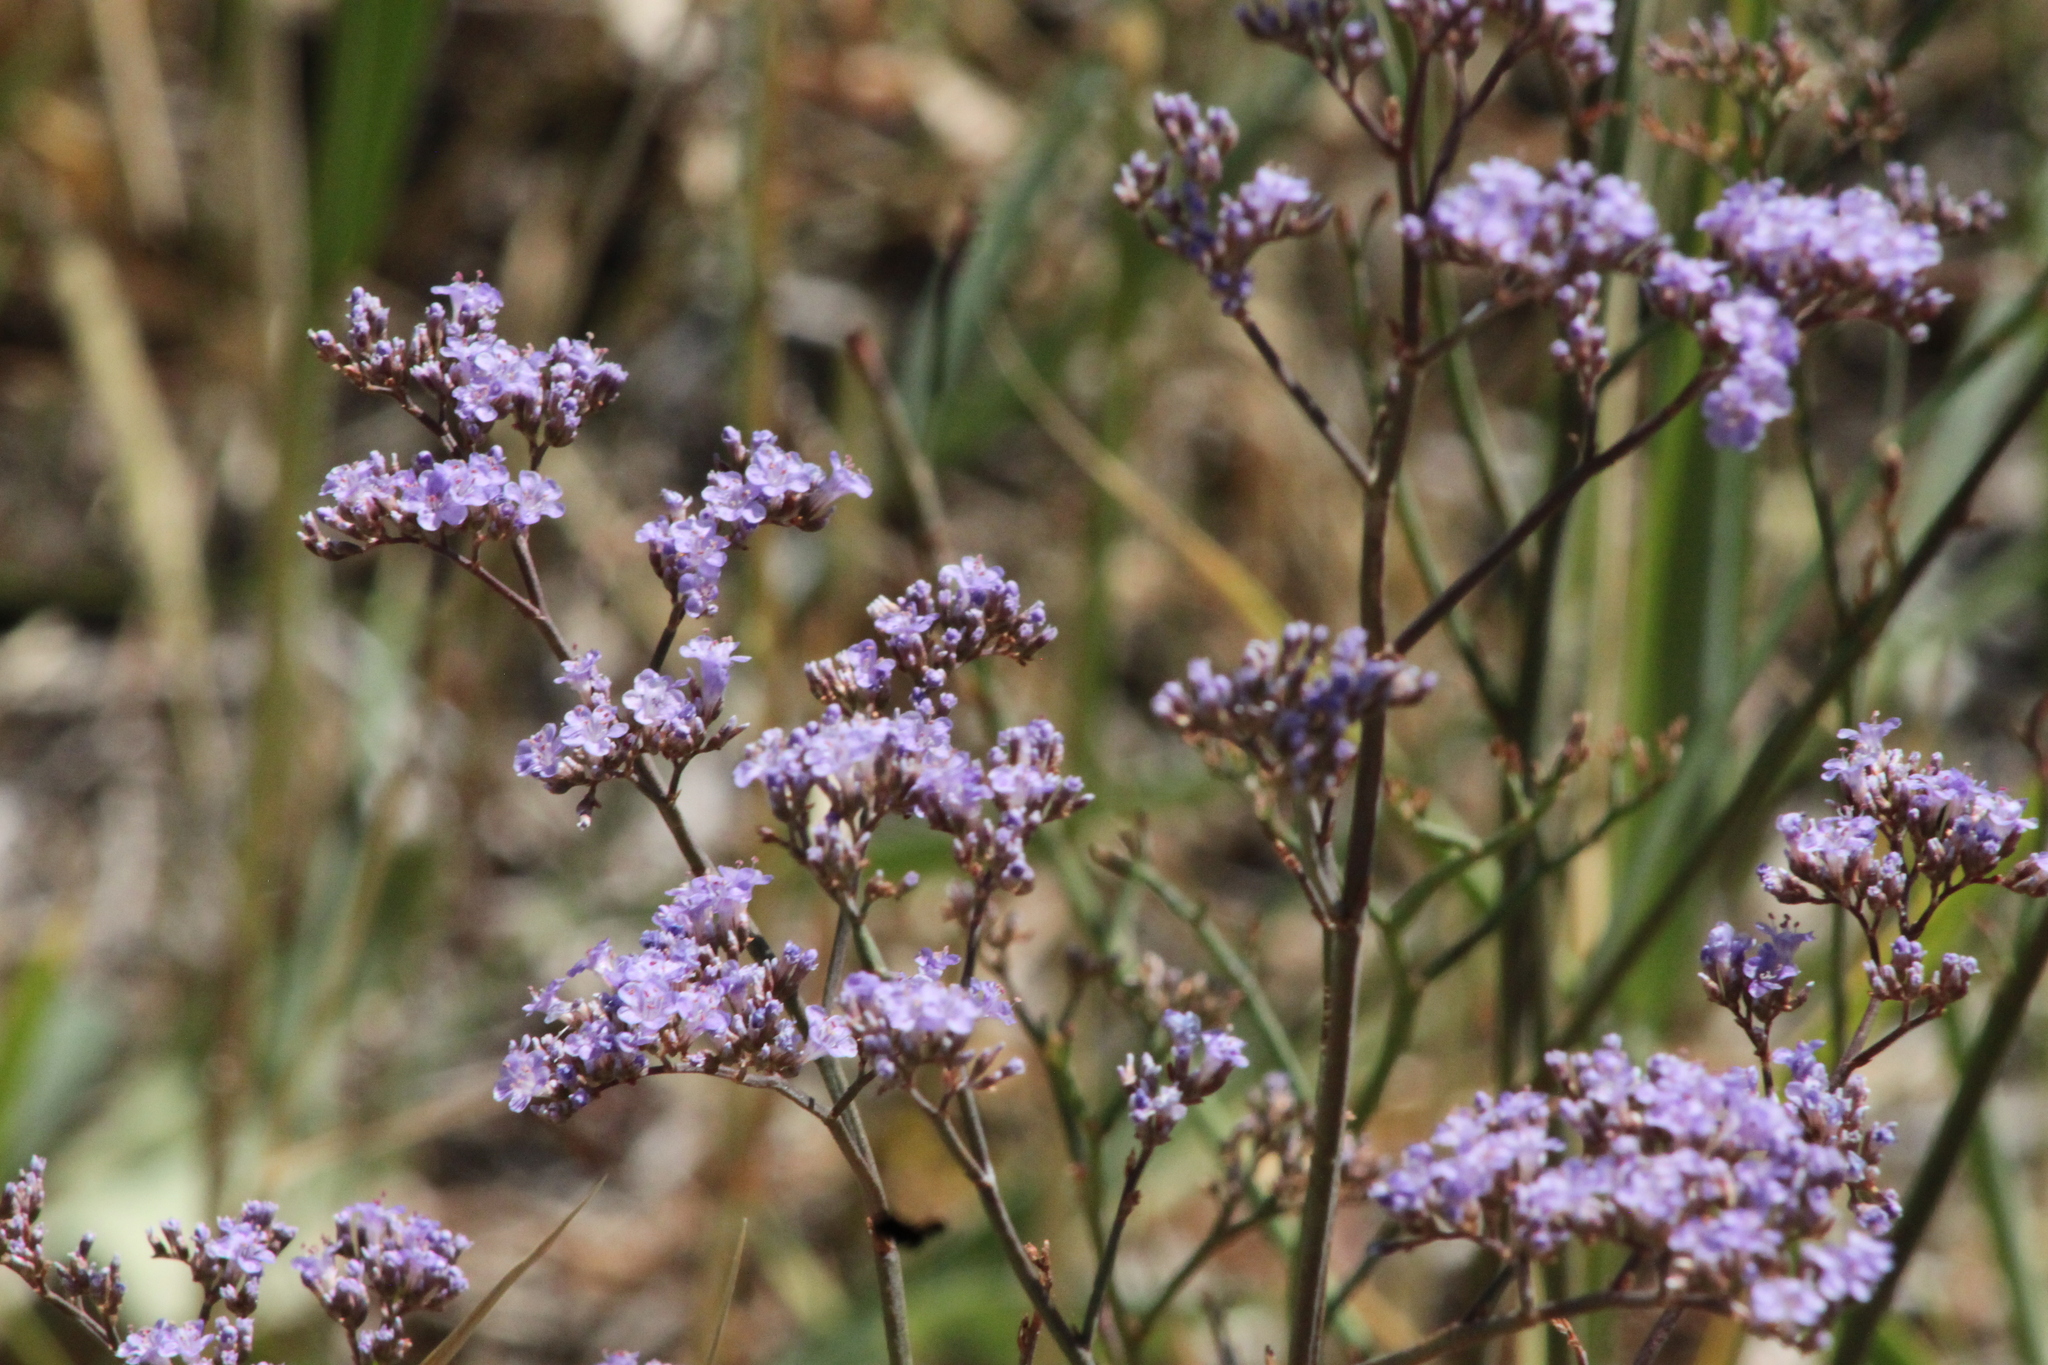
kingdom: Plantae
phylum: Tracheophyta
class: Magnoliopsida
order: Caryophyllales
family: Plumbaginaceae
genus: Limonium
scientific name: Limonium gmelini
